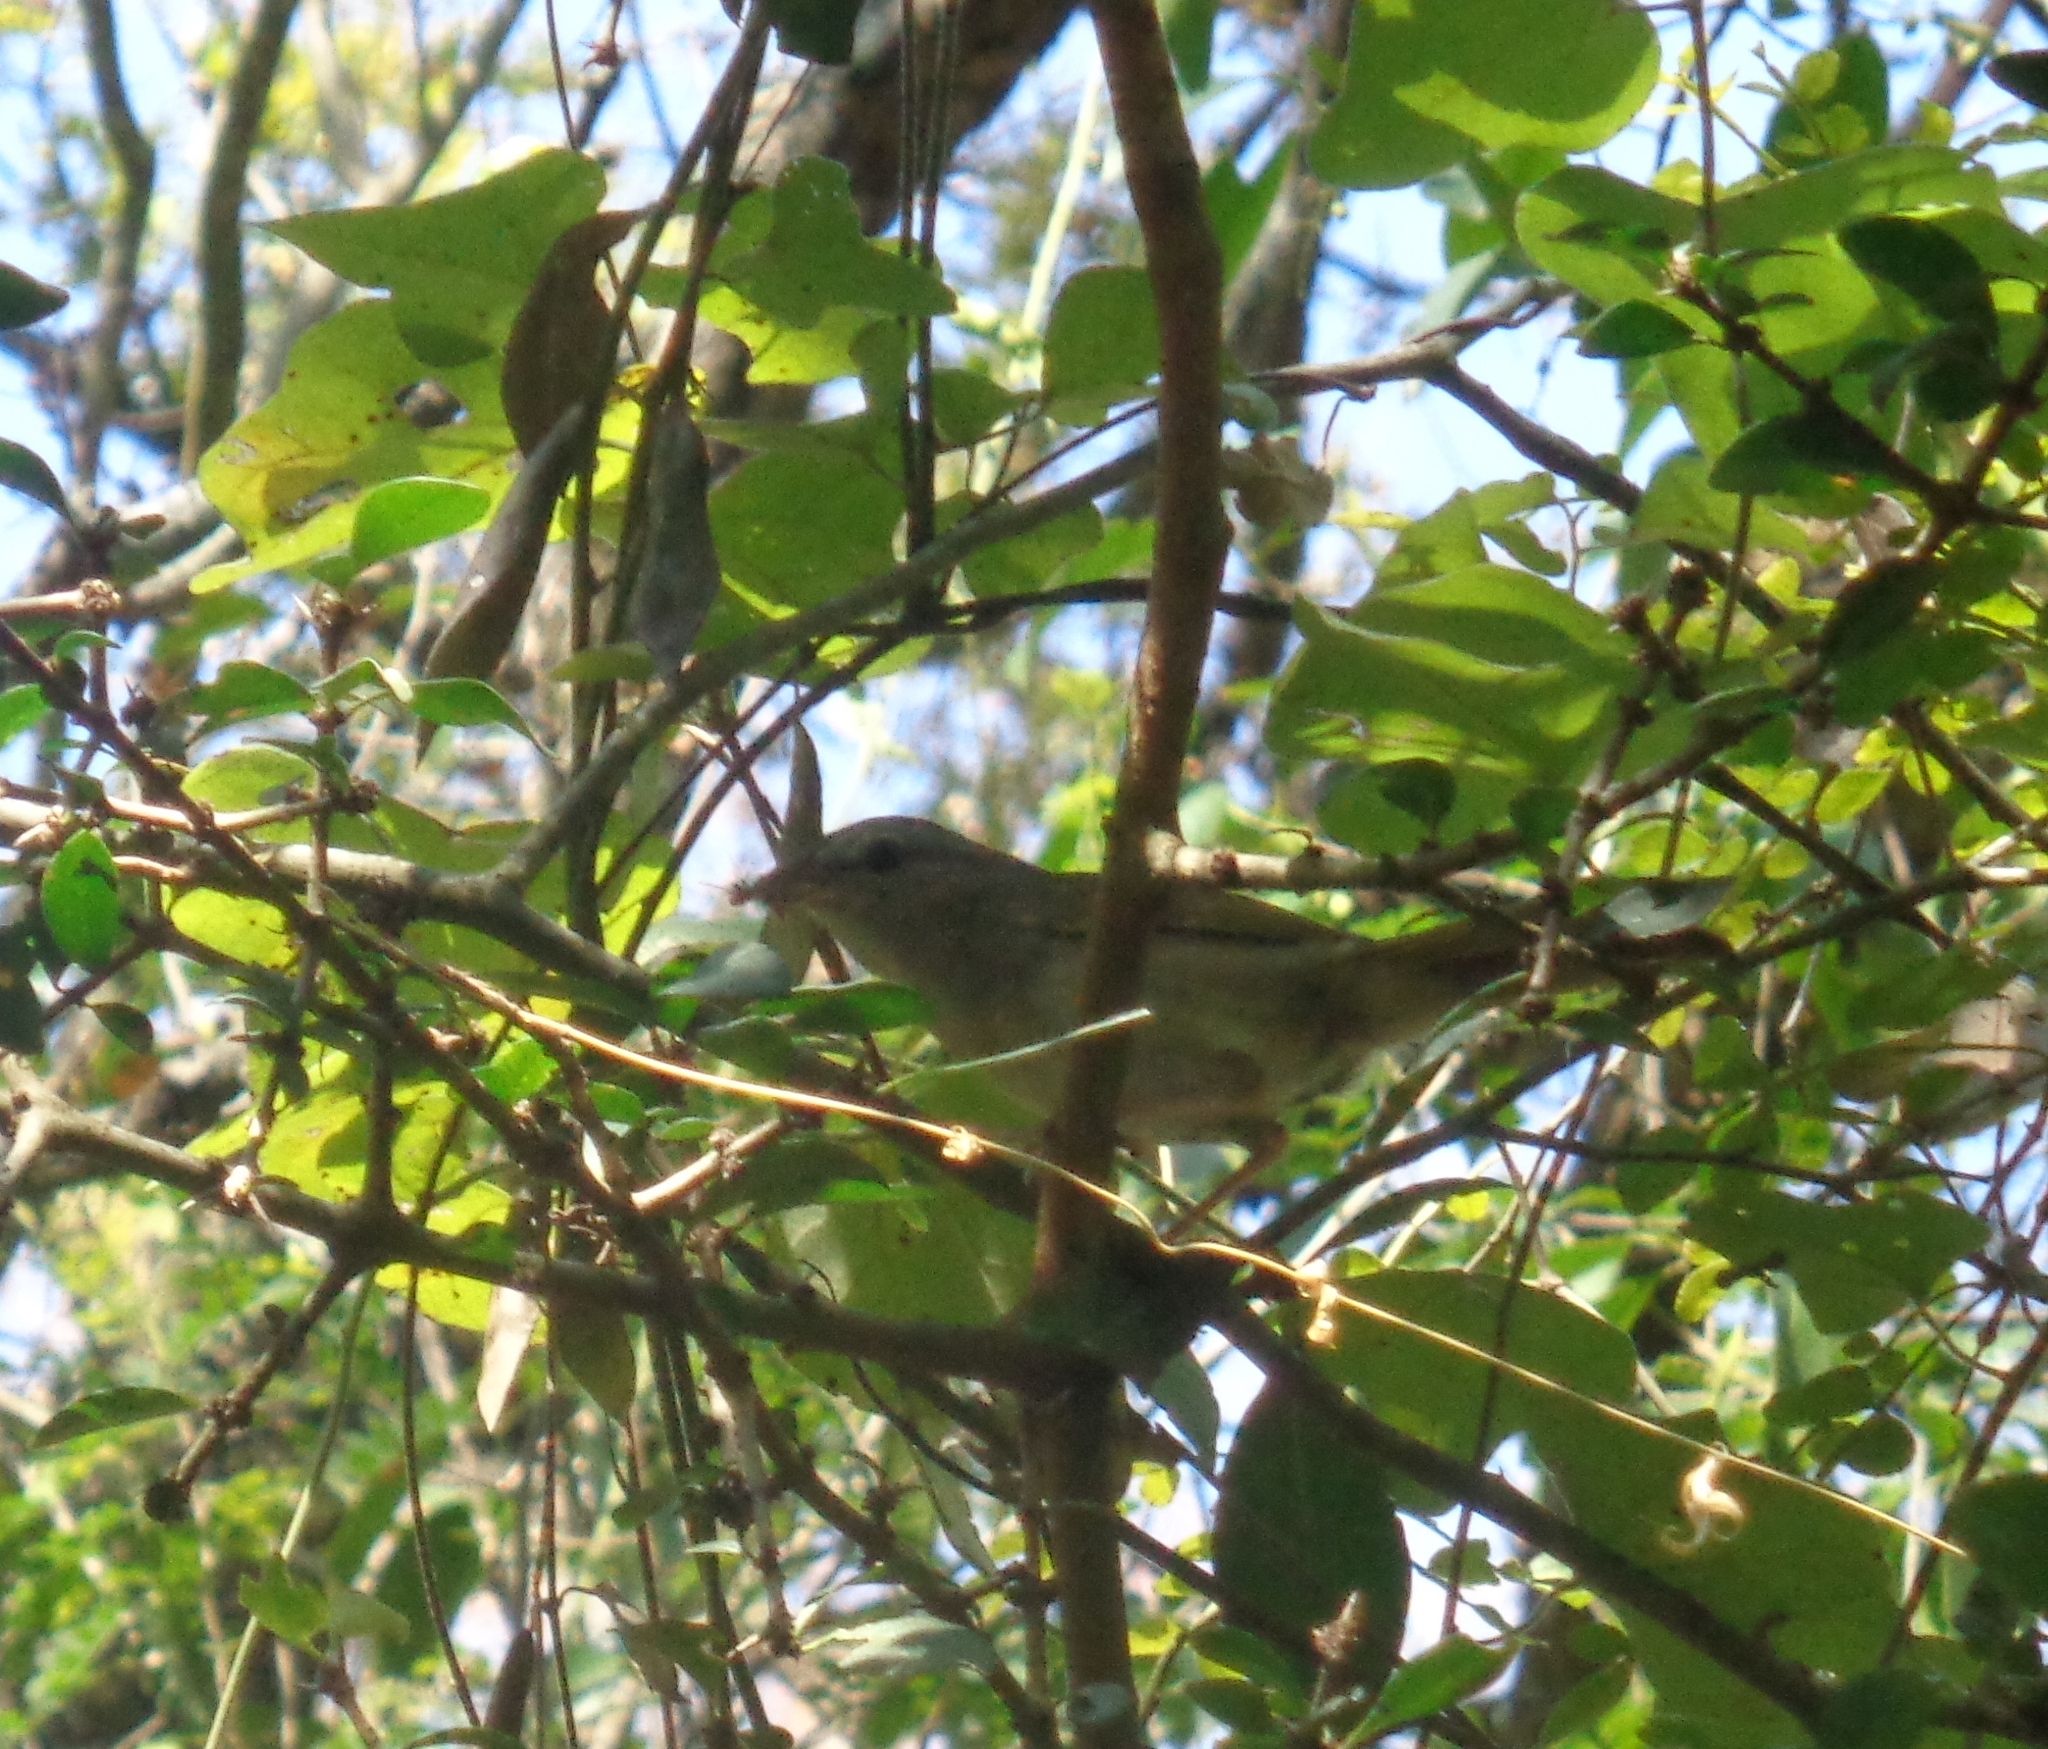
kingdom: Animalia
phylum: Chordata
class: Aves
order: Passeriformes
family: Passerellidae
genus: Arremonops
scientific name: Arremonops rufivirgatus
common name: Olive sparrow
